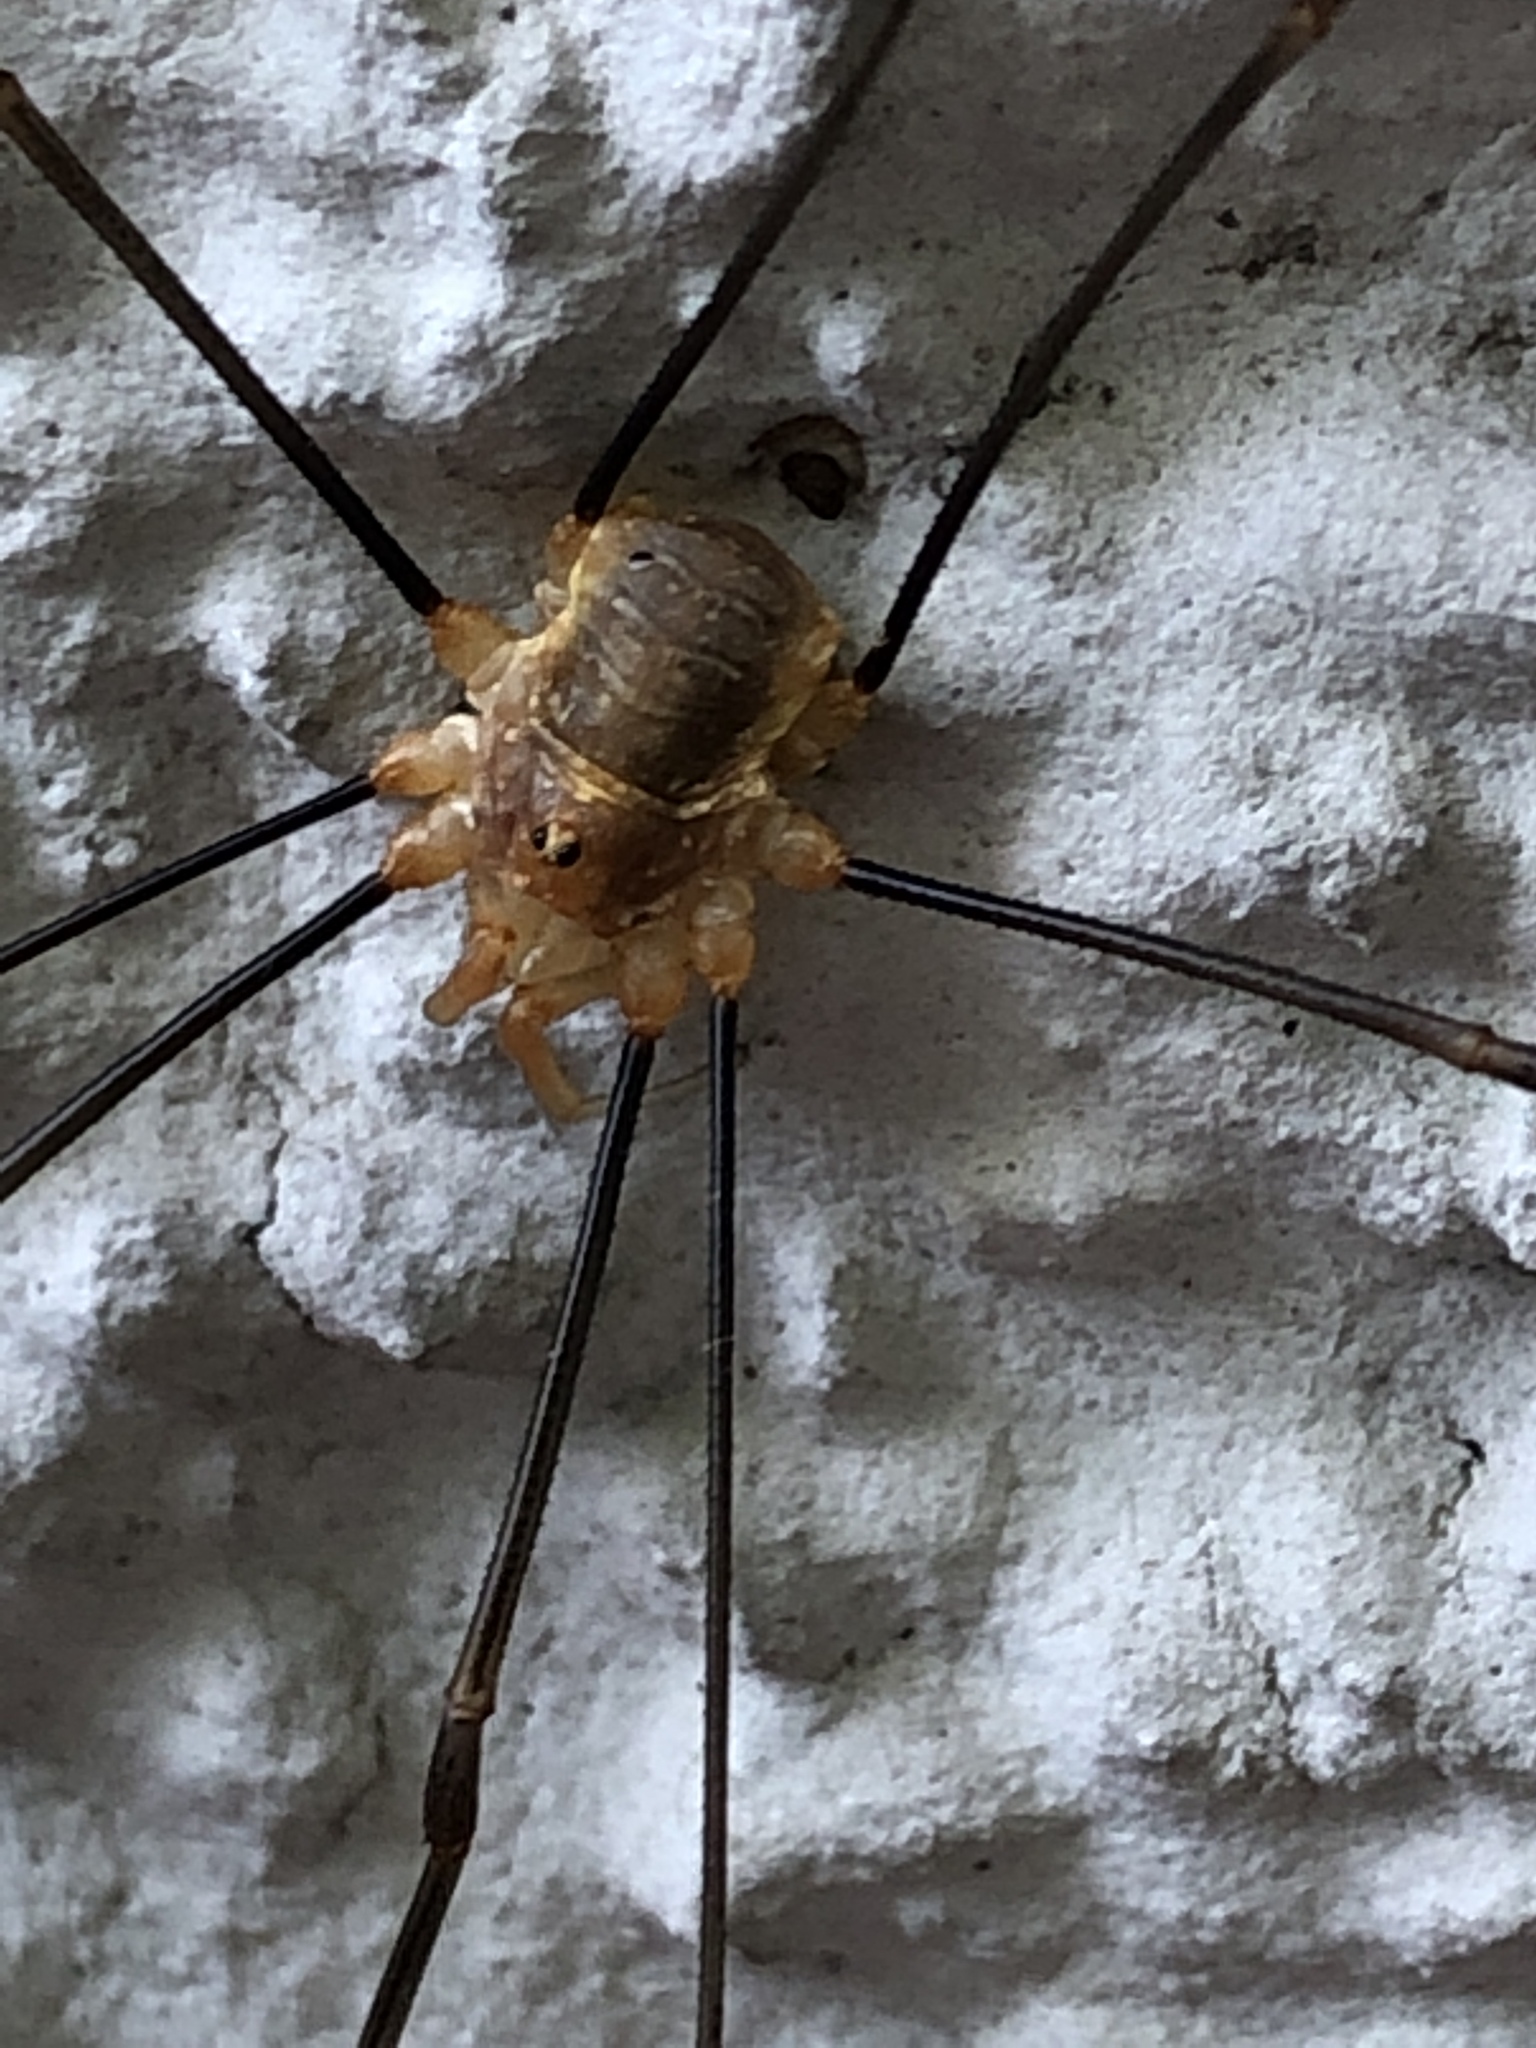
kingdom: Animalia
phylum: Arthropoda
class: Arachnida
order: Opiliones
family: Phalangiidae
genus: Opilio
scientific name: Opilio canestrinii
